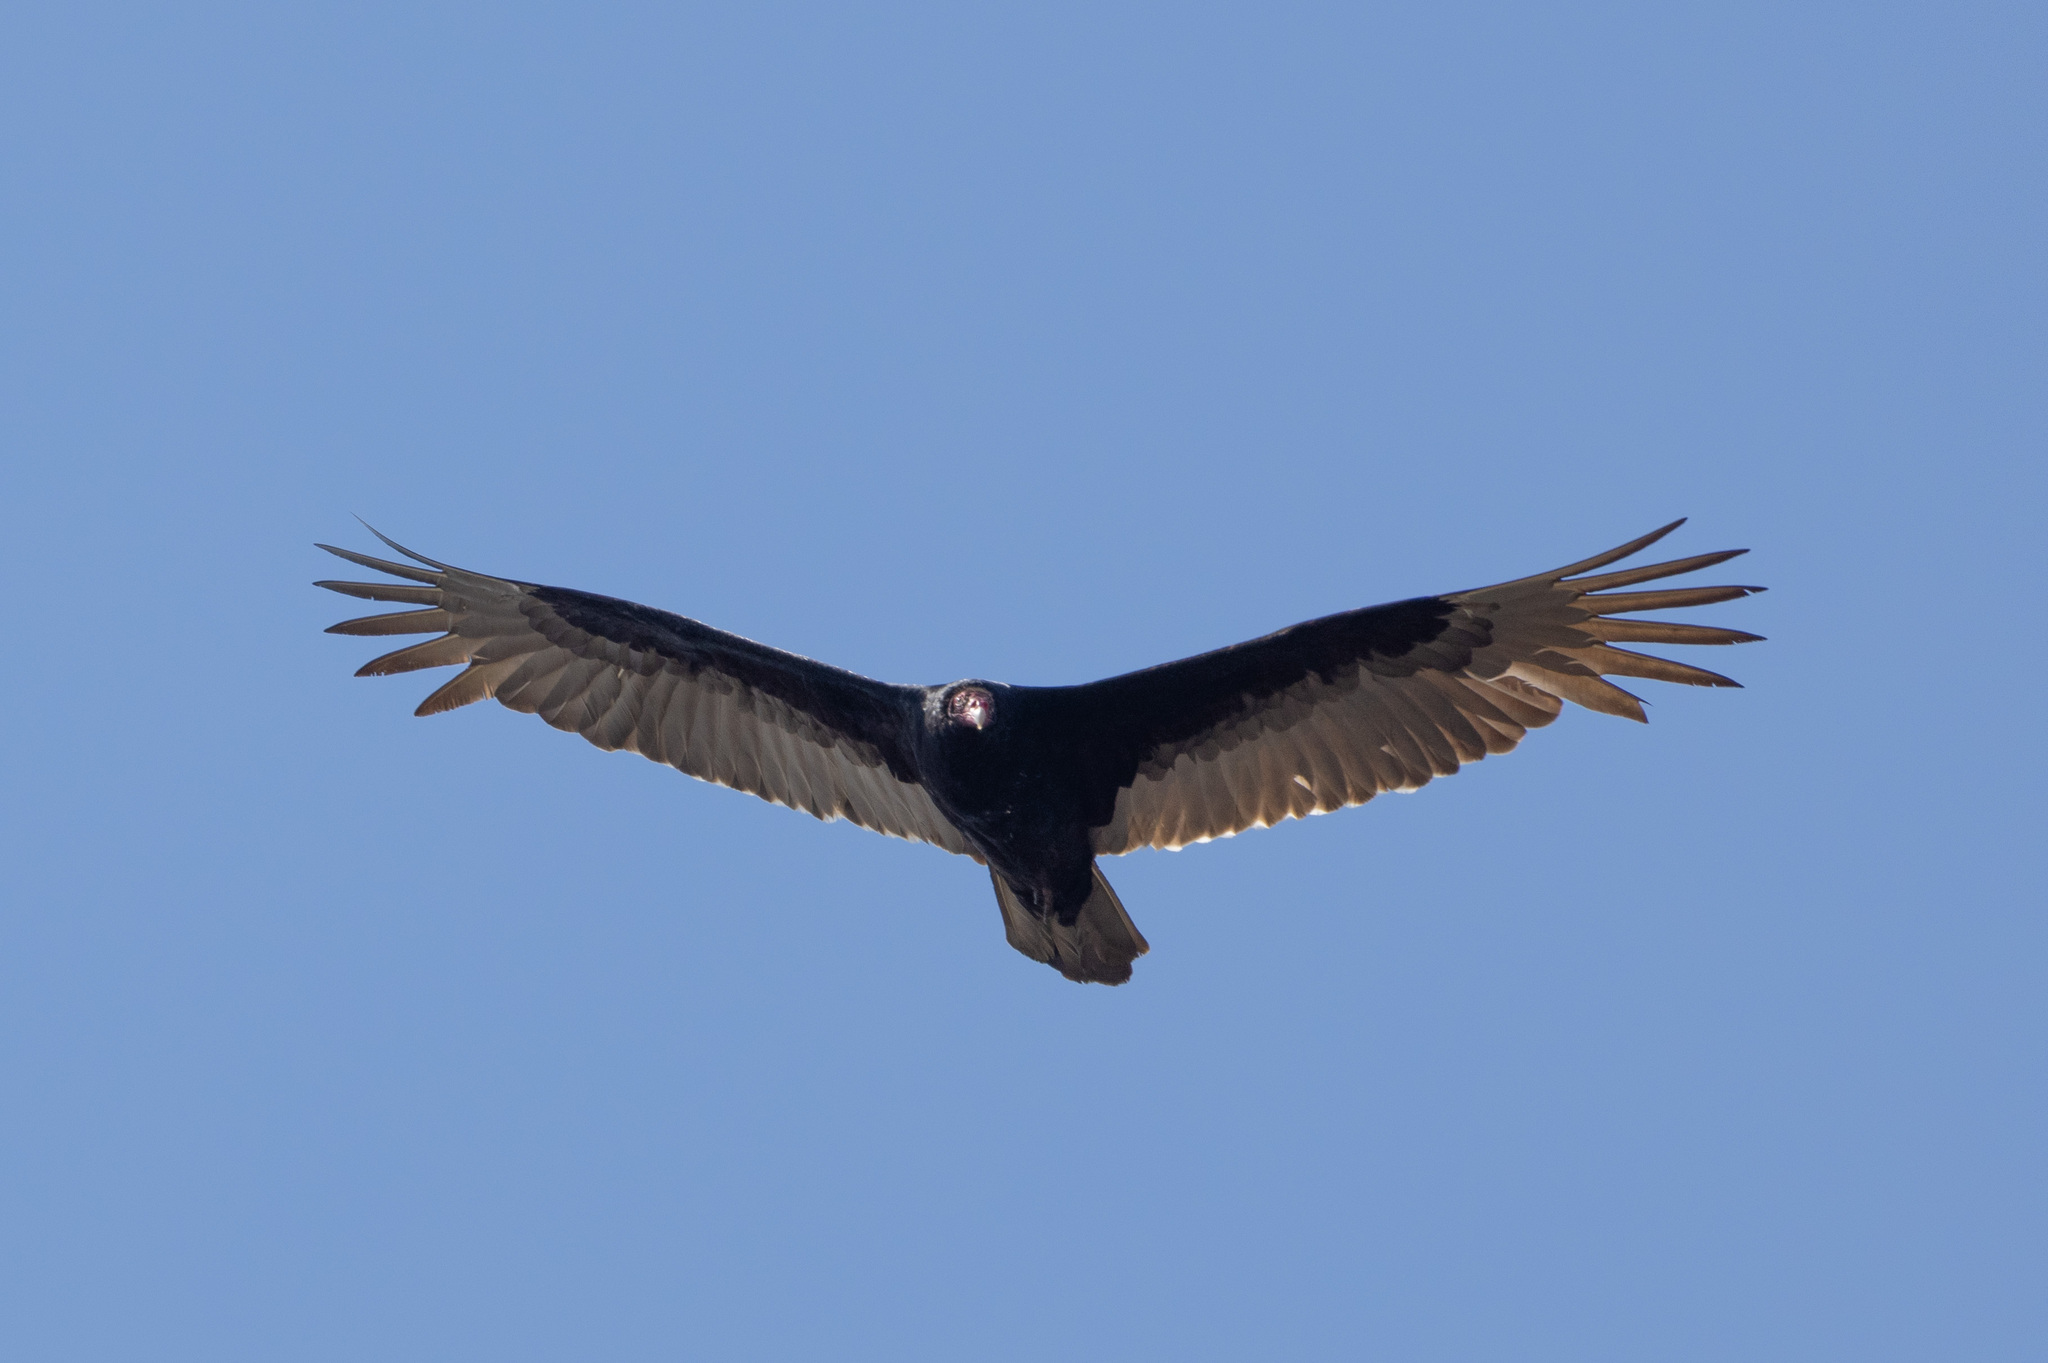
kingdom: Animalia
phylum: Chordata
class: Aves
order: Accipitriformes
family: Cathartidae
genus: Cathartes
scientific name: Cathartes aura
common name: Turkey vulture
